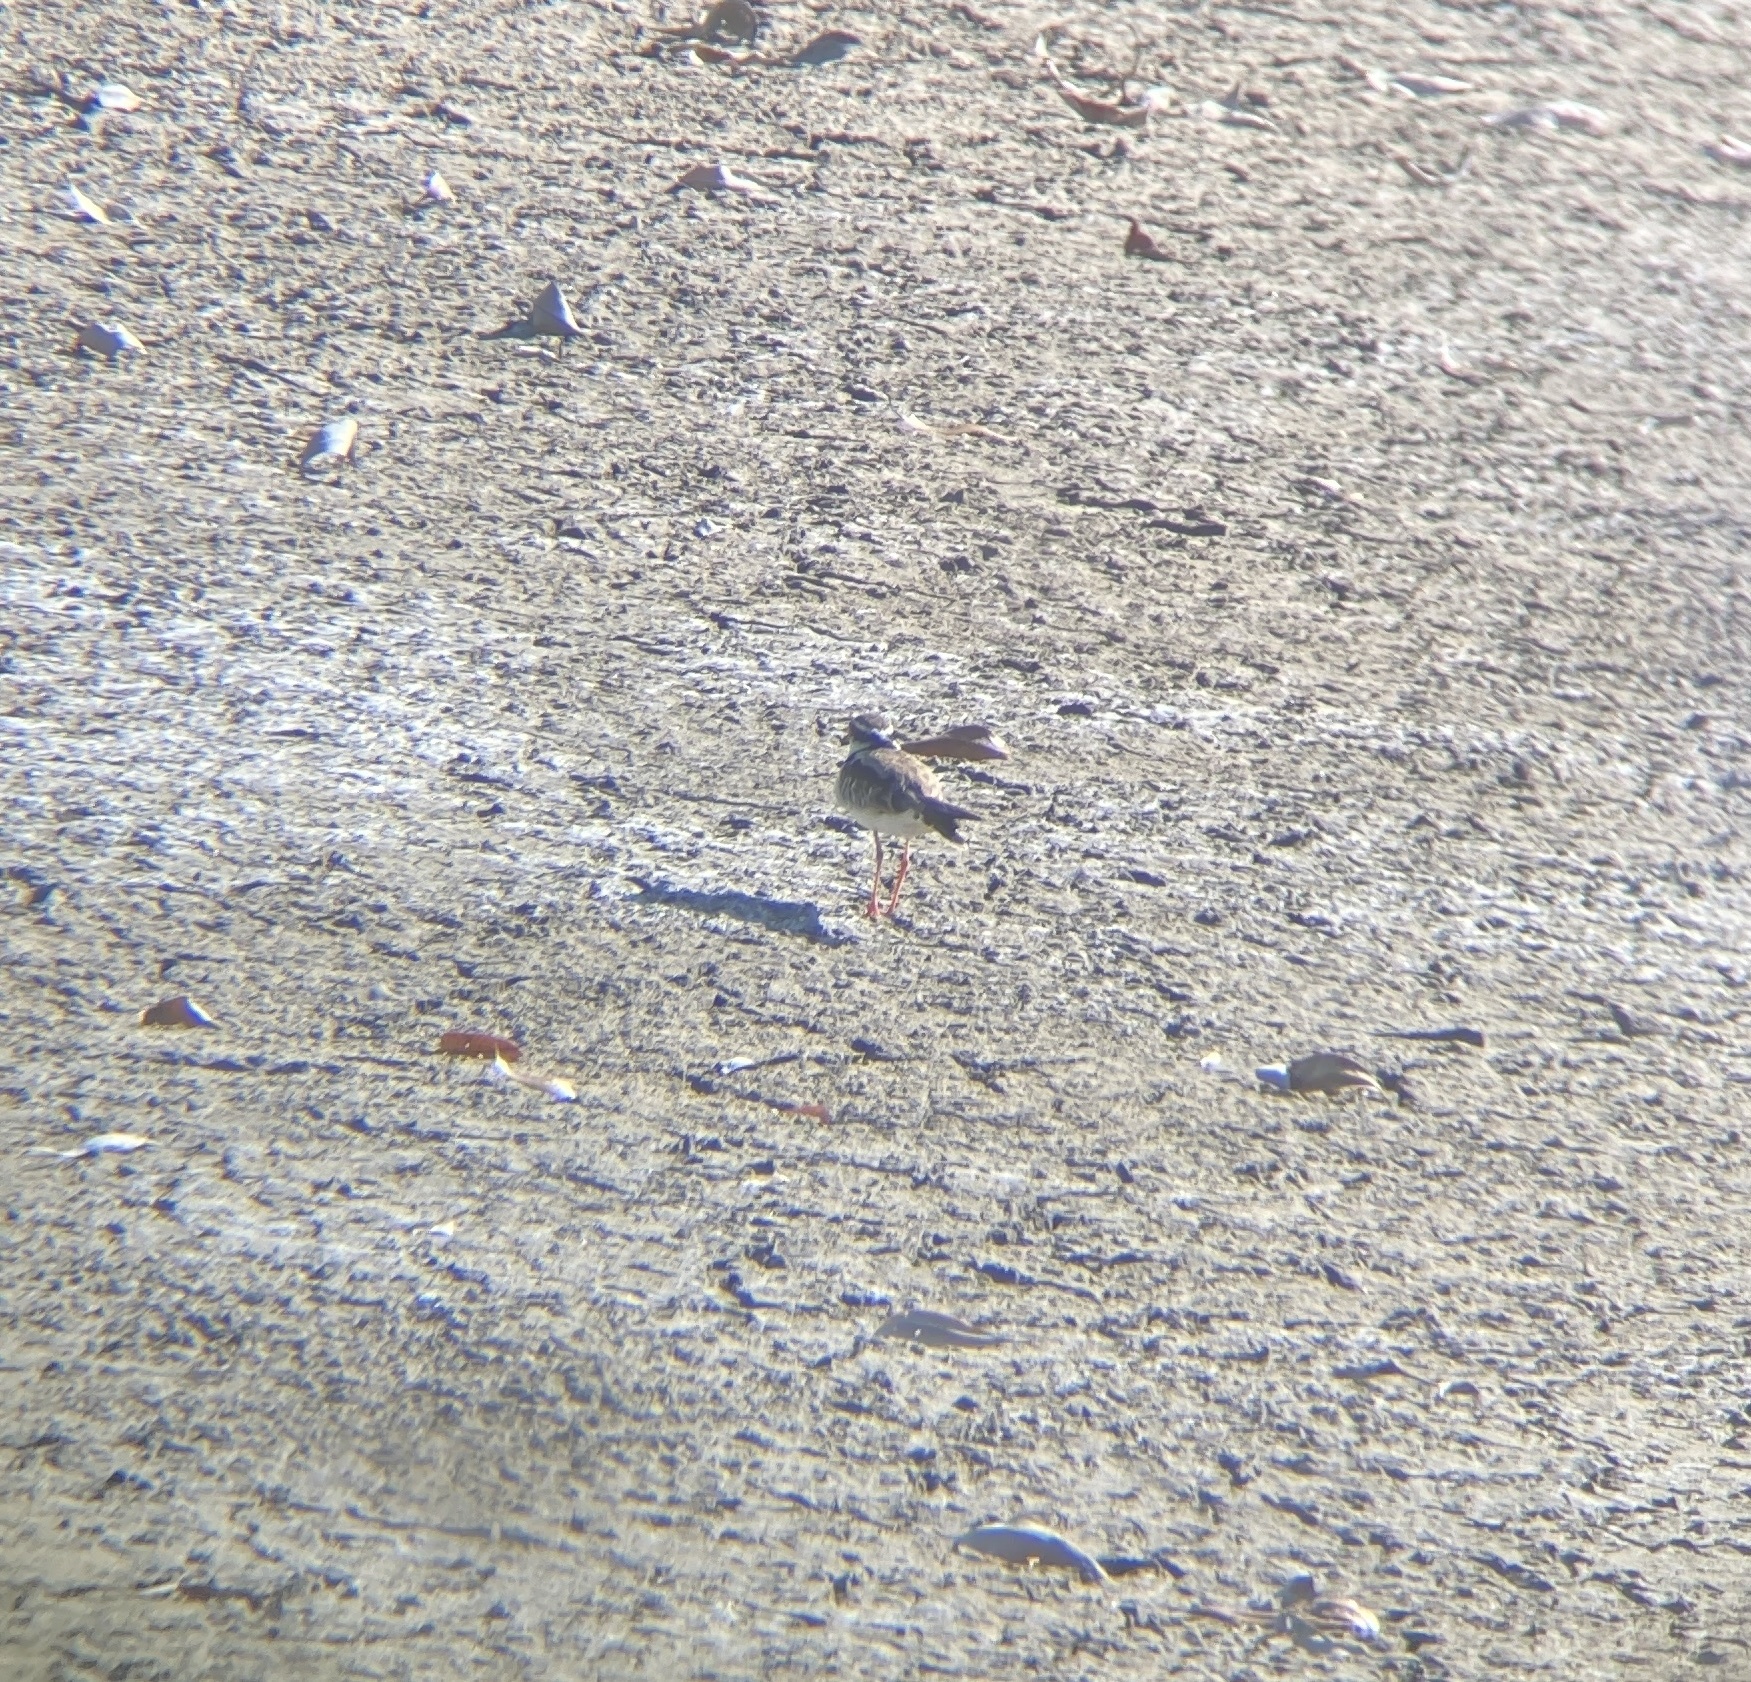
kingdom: Animalia
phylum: Chordata
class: Aves
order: Charadriiformes
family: Charadriidae
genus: Elseyornis
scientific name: Elseyornis melanops
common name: Black-fronted dotterel
